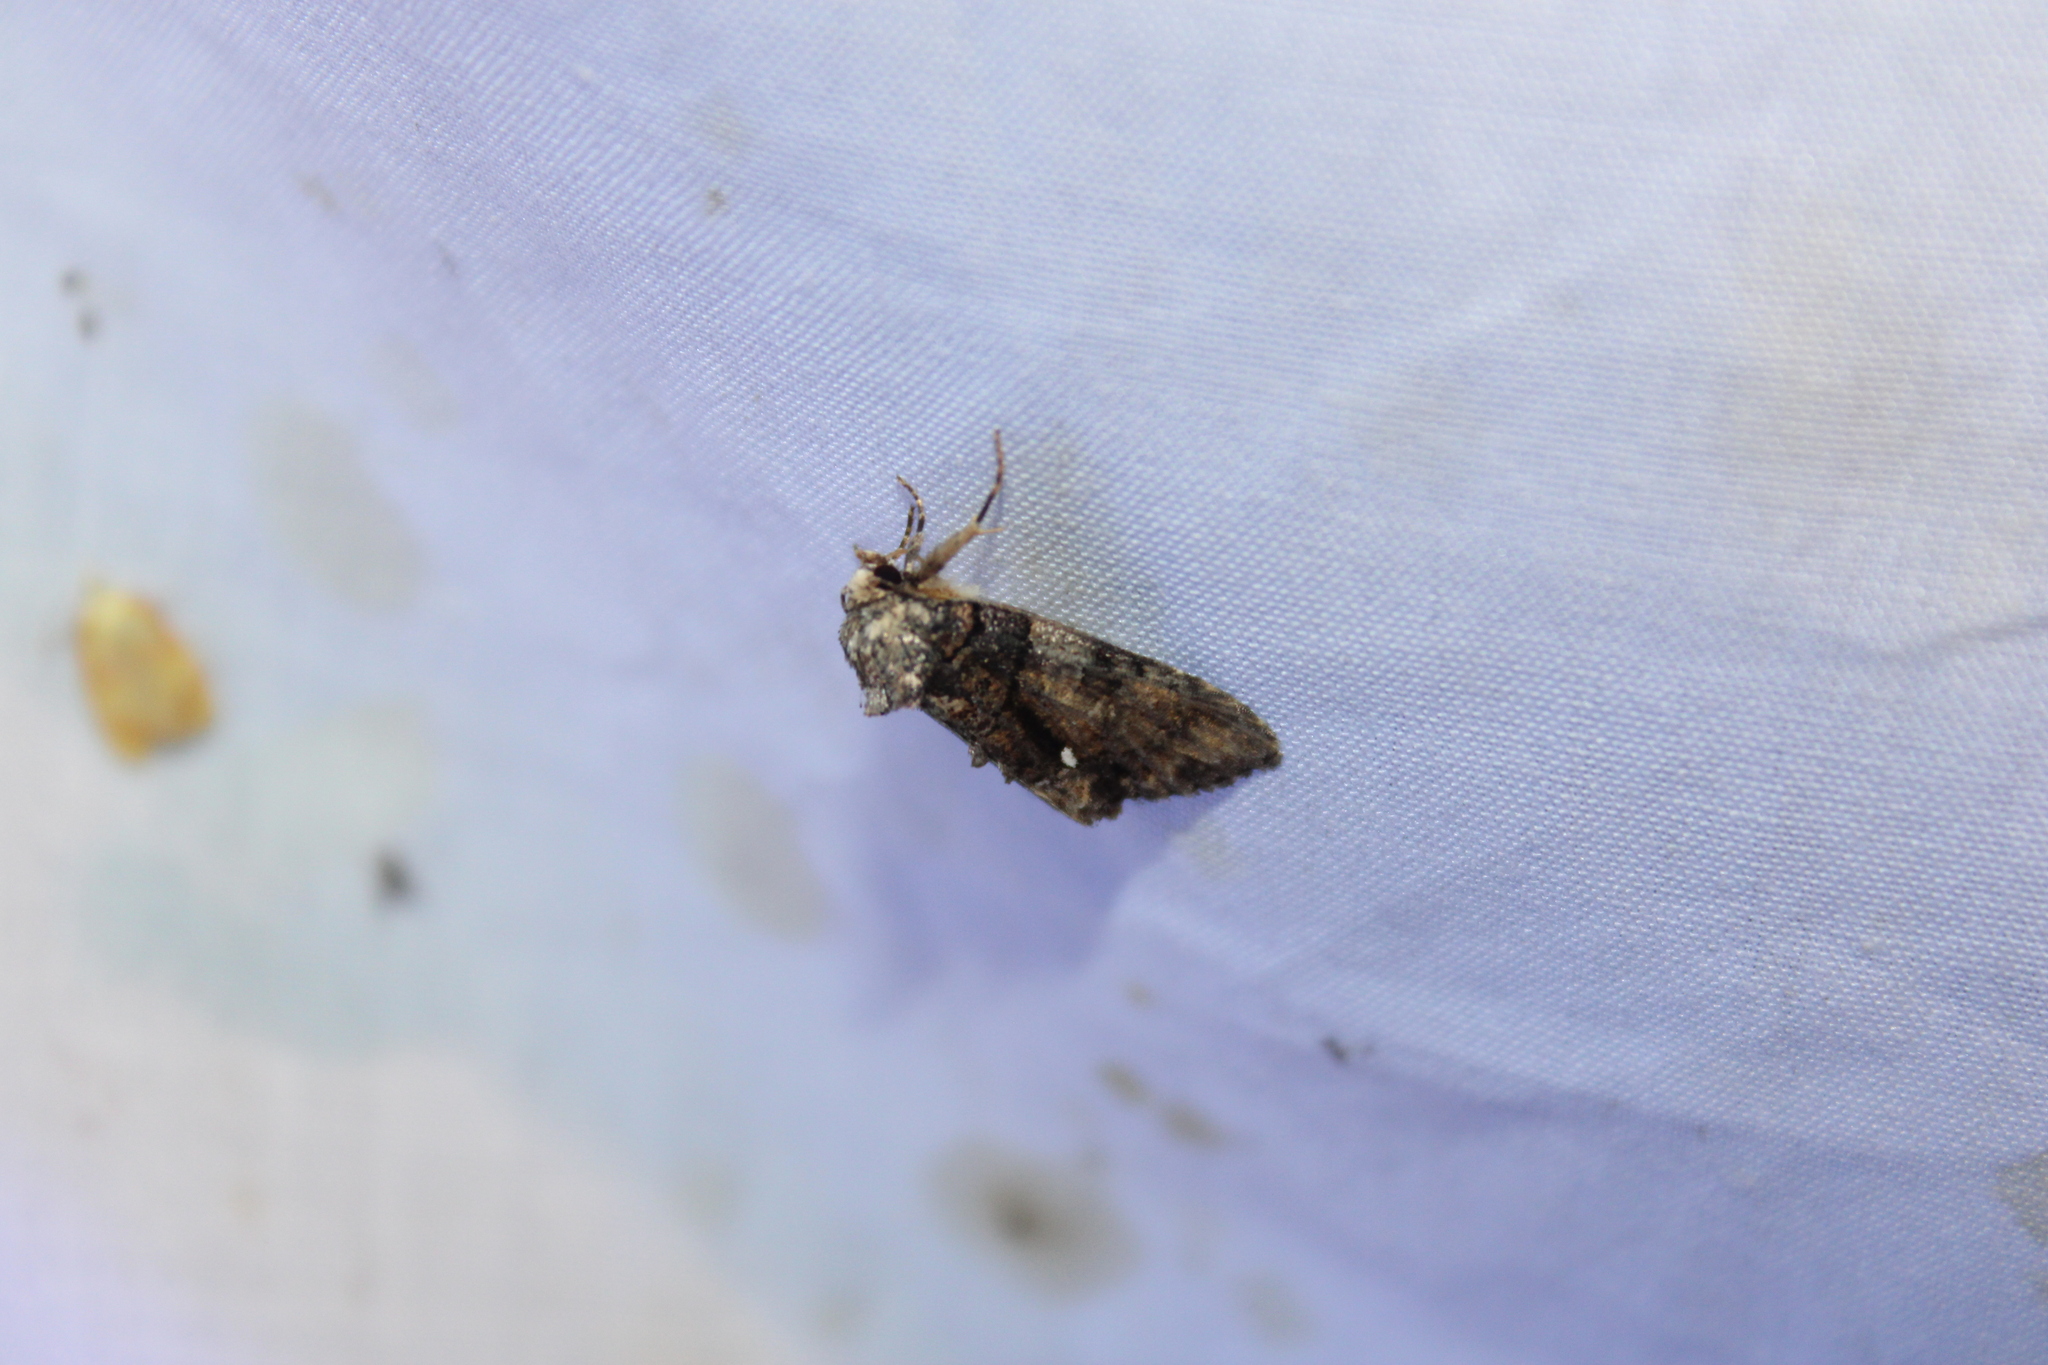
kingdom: Animalia
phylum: Arthropoda
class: Insecta
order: Lepidoptera
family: Noctuidae
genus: Chytonix
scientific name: Chytonix palliatricula
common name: Cloaked marvel
